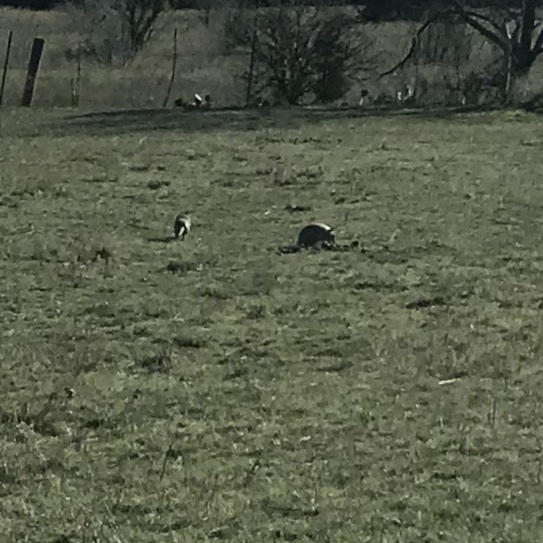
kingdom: Animalia
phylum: Chordata
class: Mammalia
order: Cingulata
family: Dasypodidae
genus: Dasypus
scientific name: Dasypus novemcinctus
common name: Nine-banded armadillo
